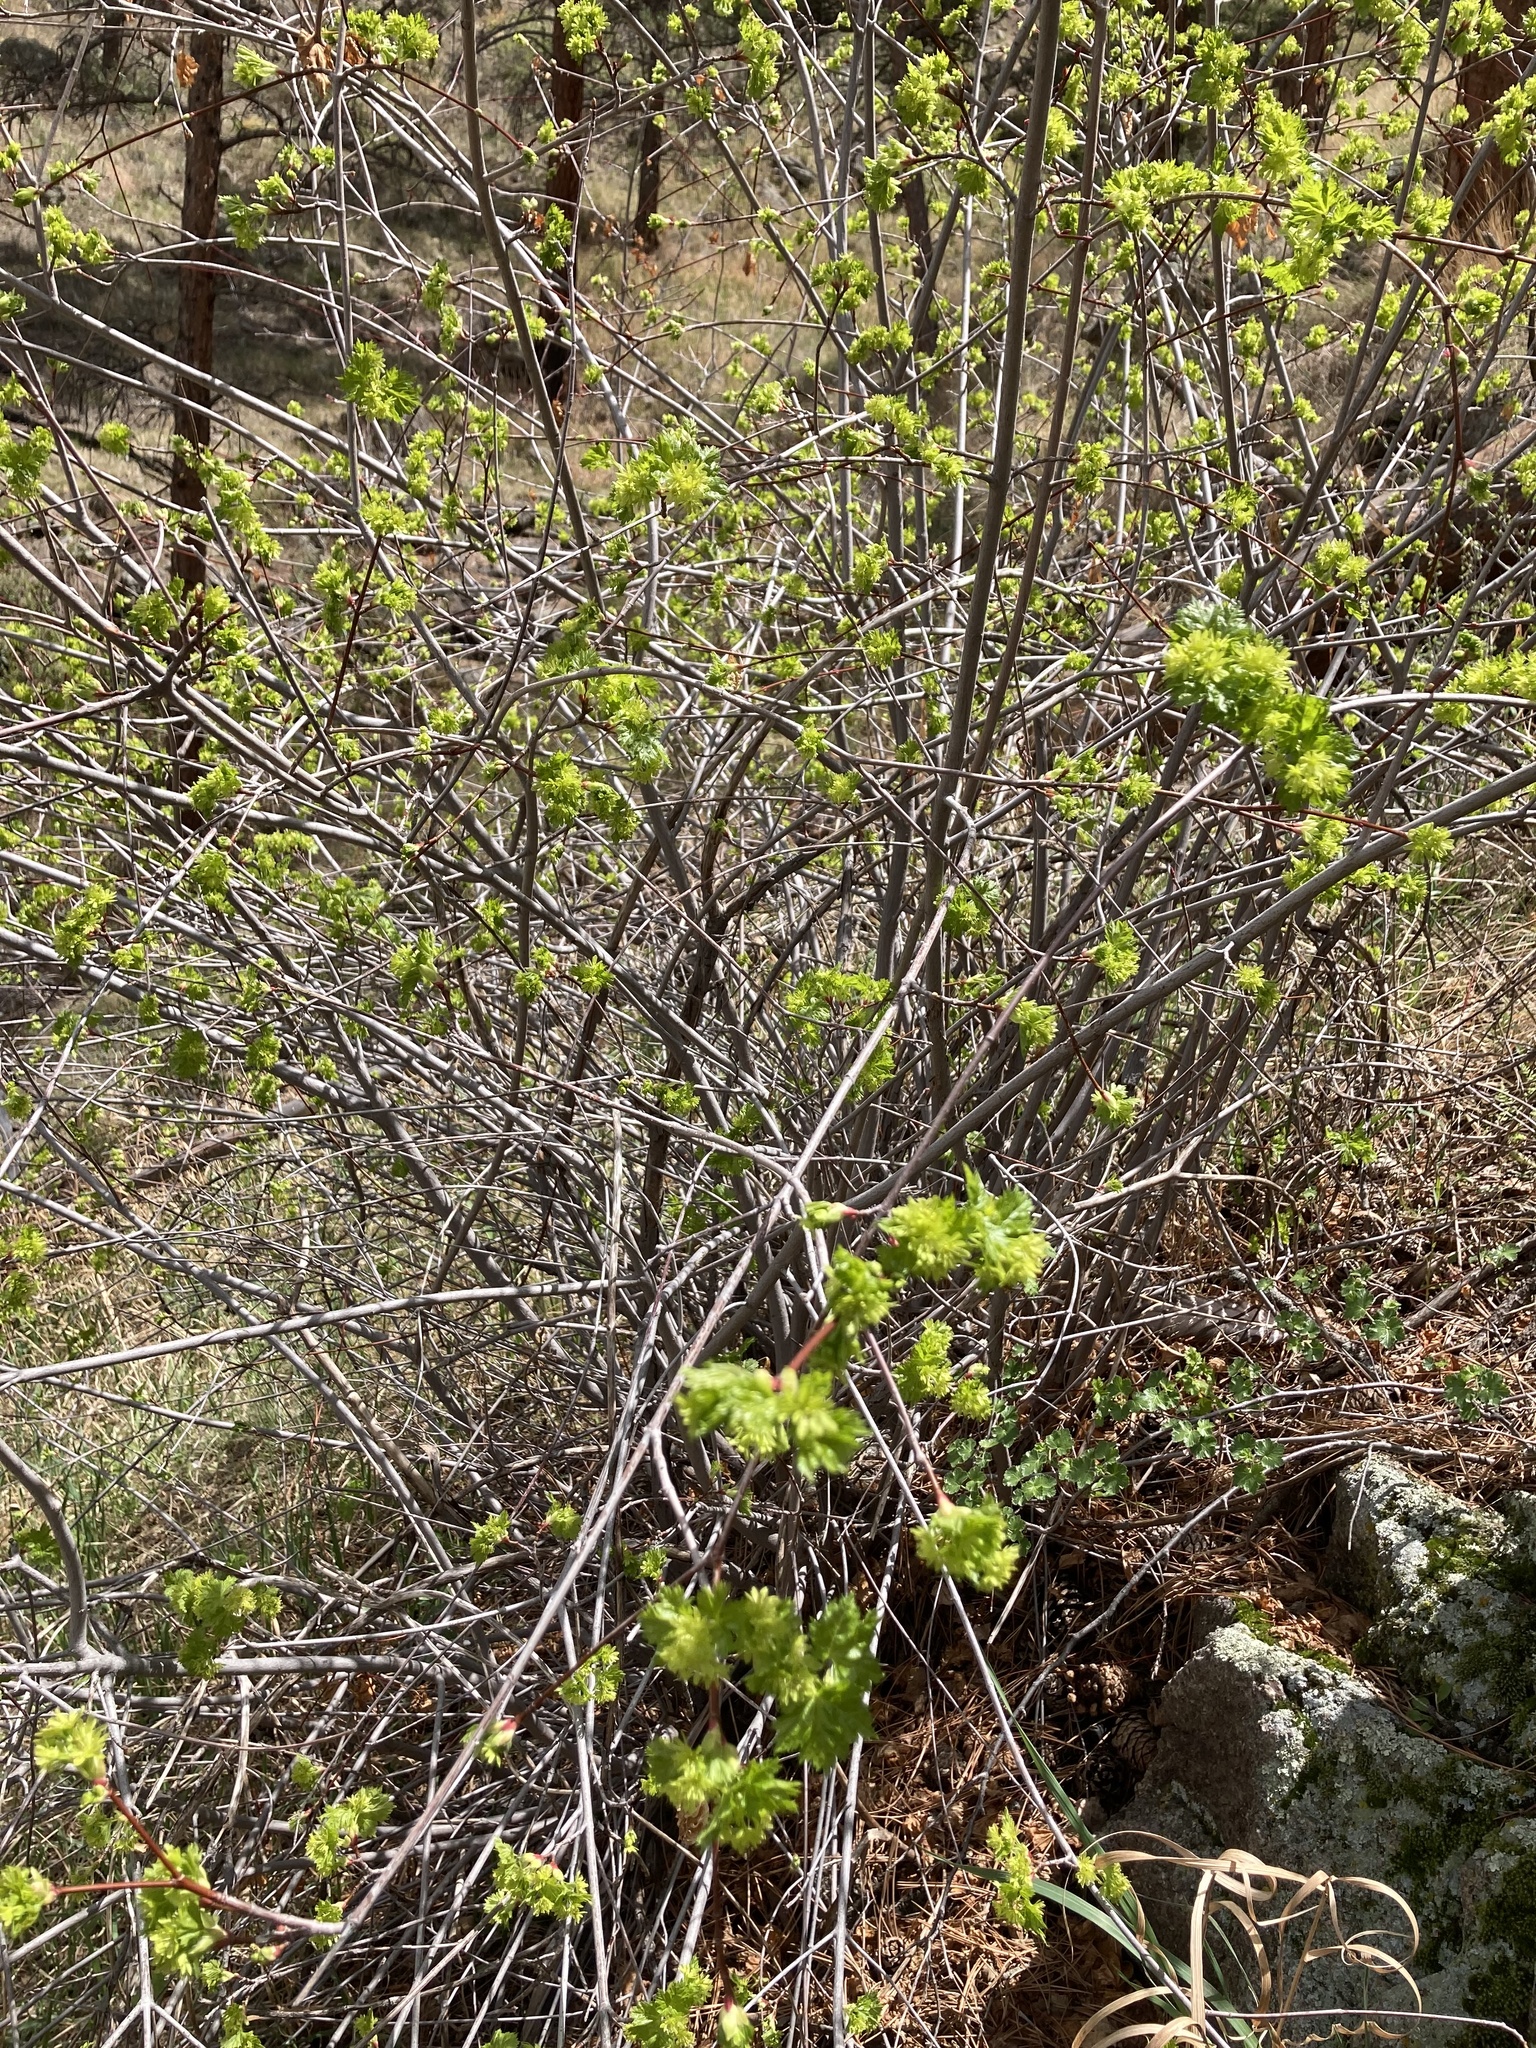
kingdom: Plantae
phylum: Tracheophyta
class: Magnoliopsida
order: Sapindales
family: Sapindaceae
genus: Acer
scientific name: Acer glabrum
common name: Rocky mountain maple
